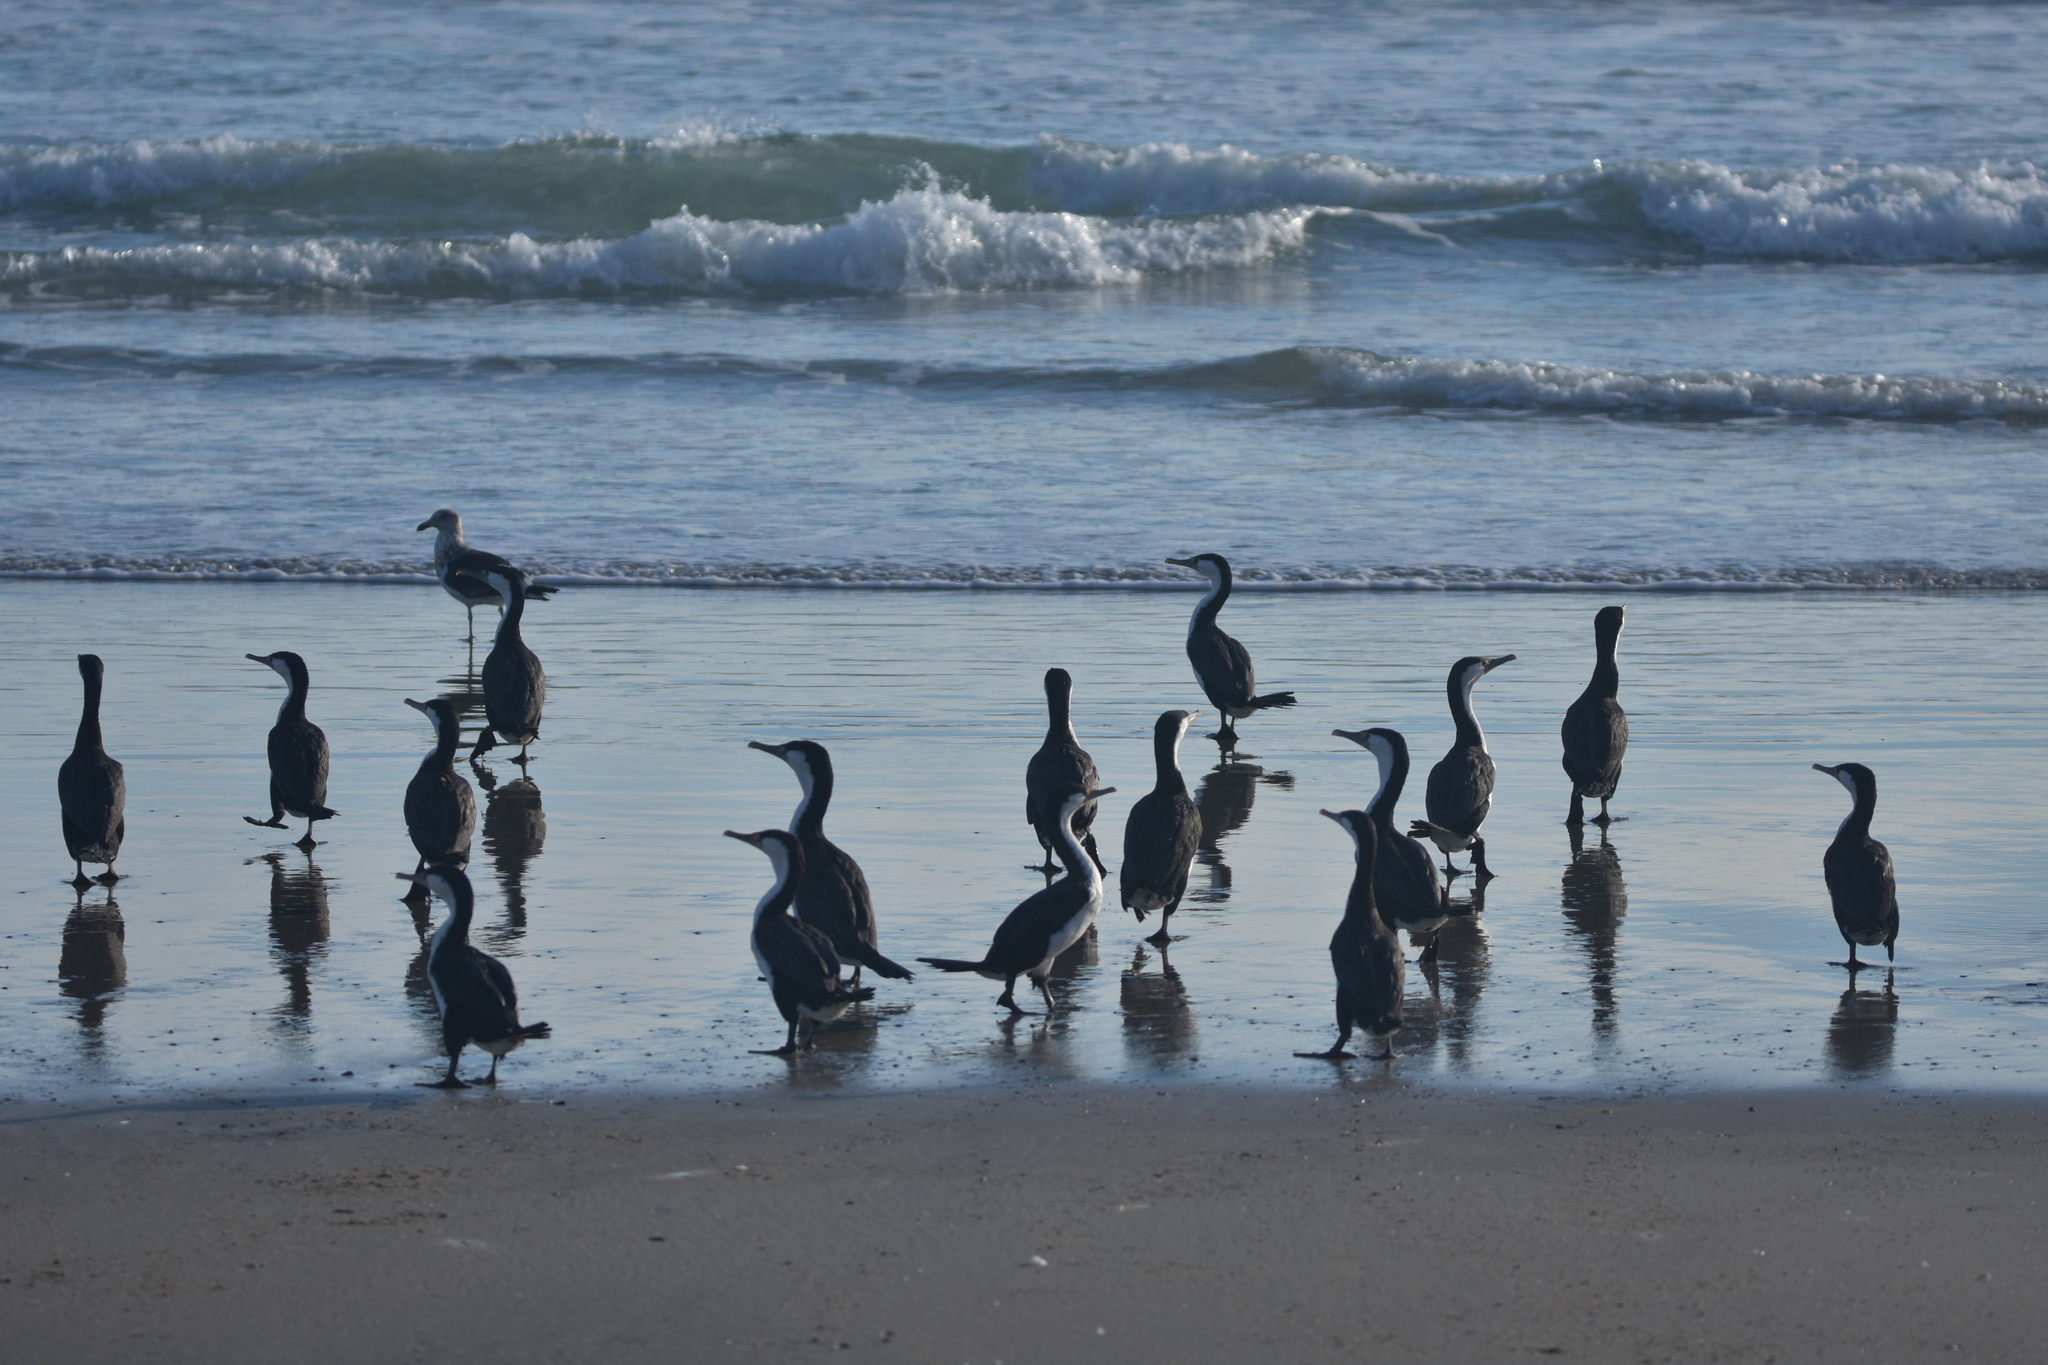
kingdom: Animalia
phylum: Chordata
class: Aves
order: Suliformes
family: Phalacrocoracidae
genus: Phalacrocorax
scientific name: Phalacrocorax varius
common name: Pied cormorant
